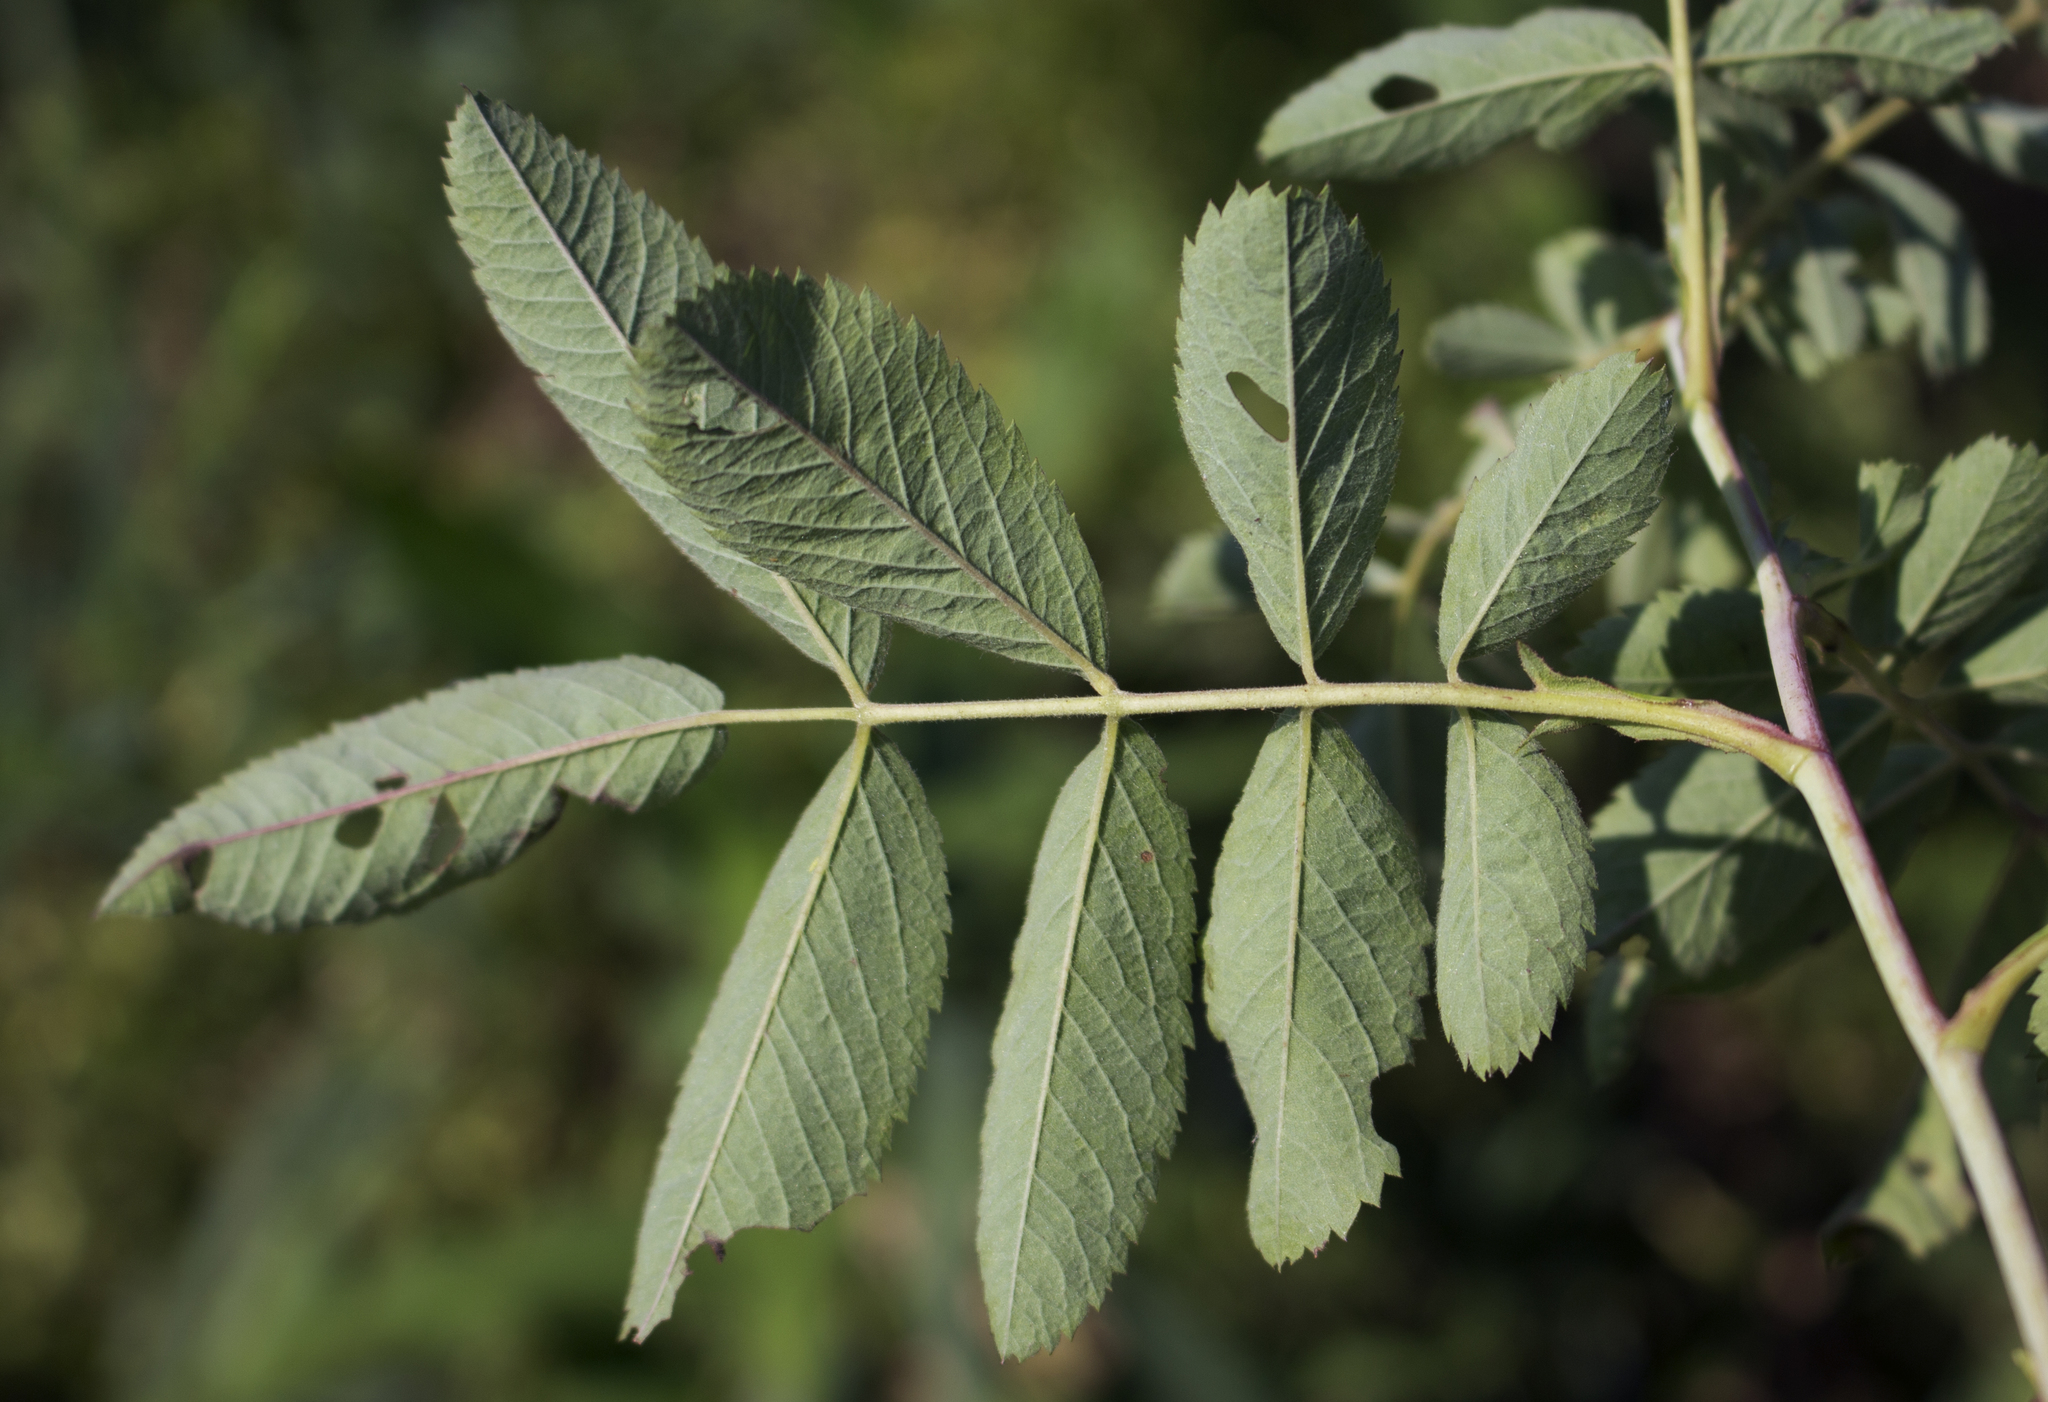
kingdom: Plantae
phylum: Tracheophyta
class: Magnoliopsida
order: Rosales
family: Rosaceae
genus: Rosa
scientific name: Rosa blanda
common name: Smooth rose
